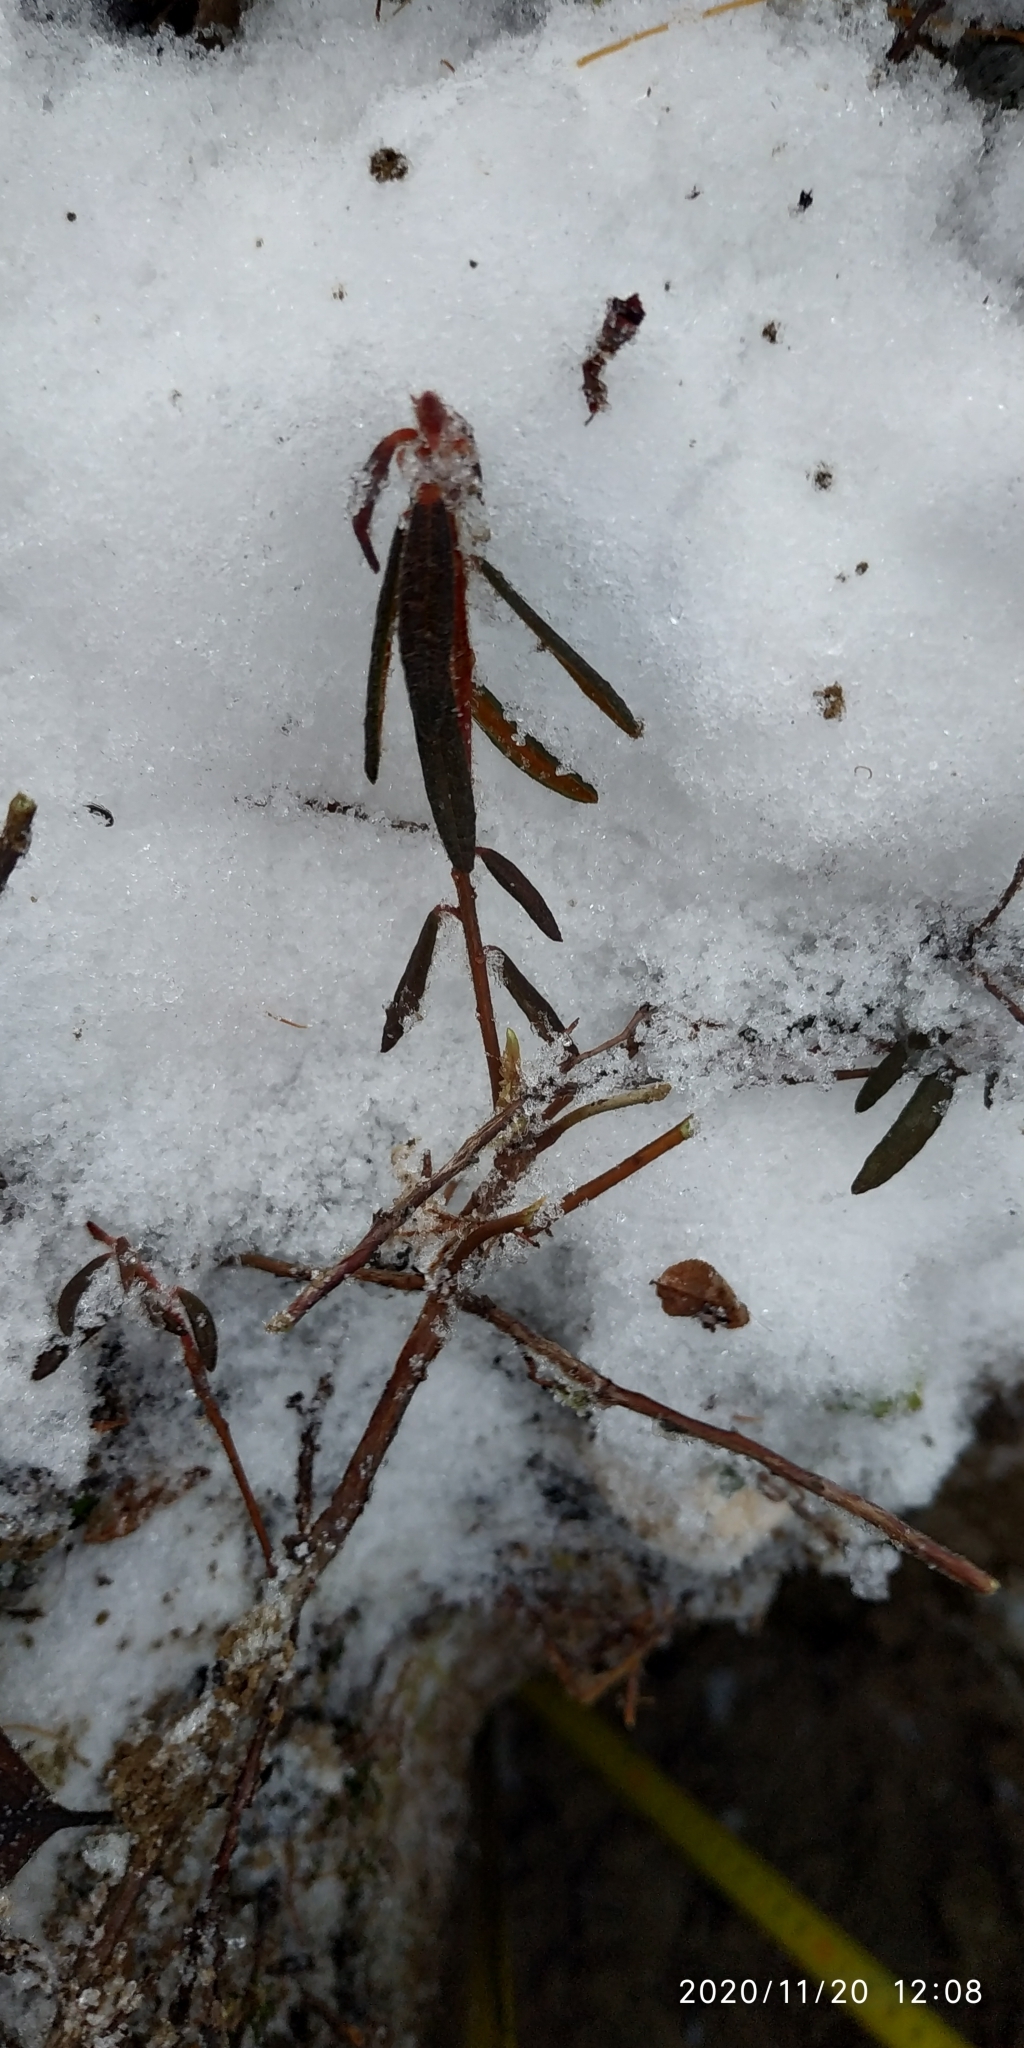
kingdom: Plantae
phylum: Tracheophyta
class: Magnoliopsida
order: Ericales
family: Ericaceae
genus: Rhododendron
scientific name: Rhododendron tomentosum
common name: Marsh labrador tea
